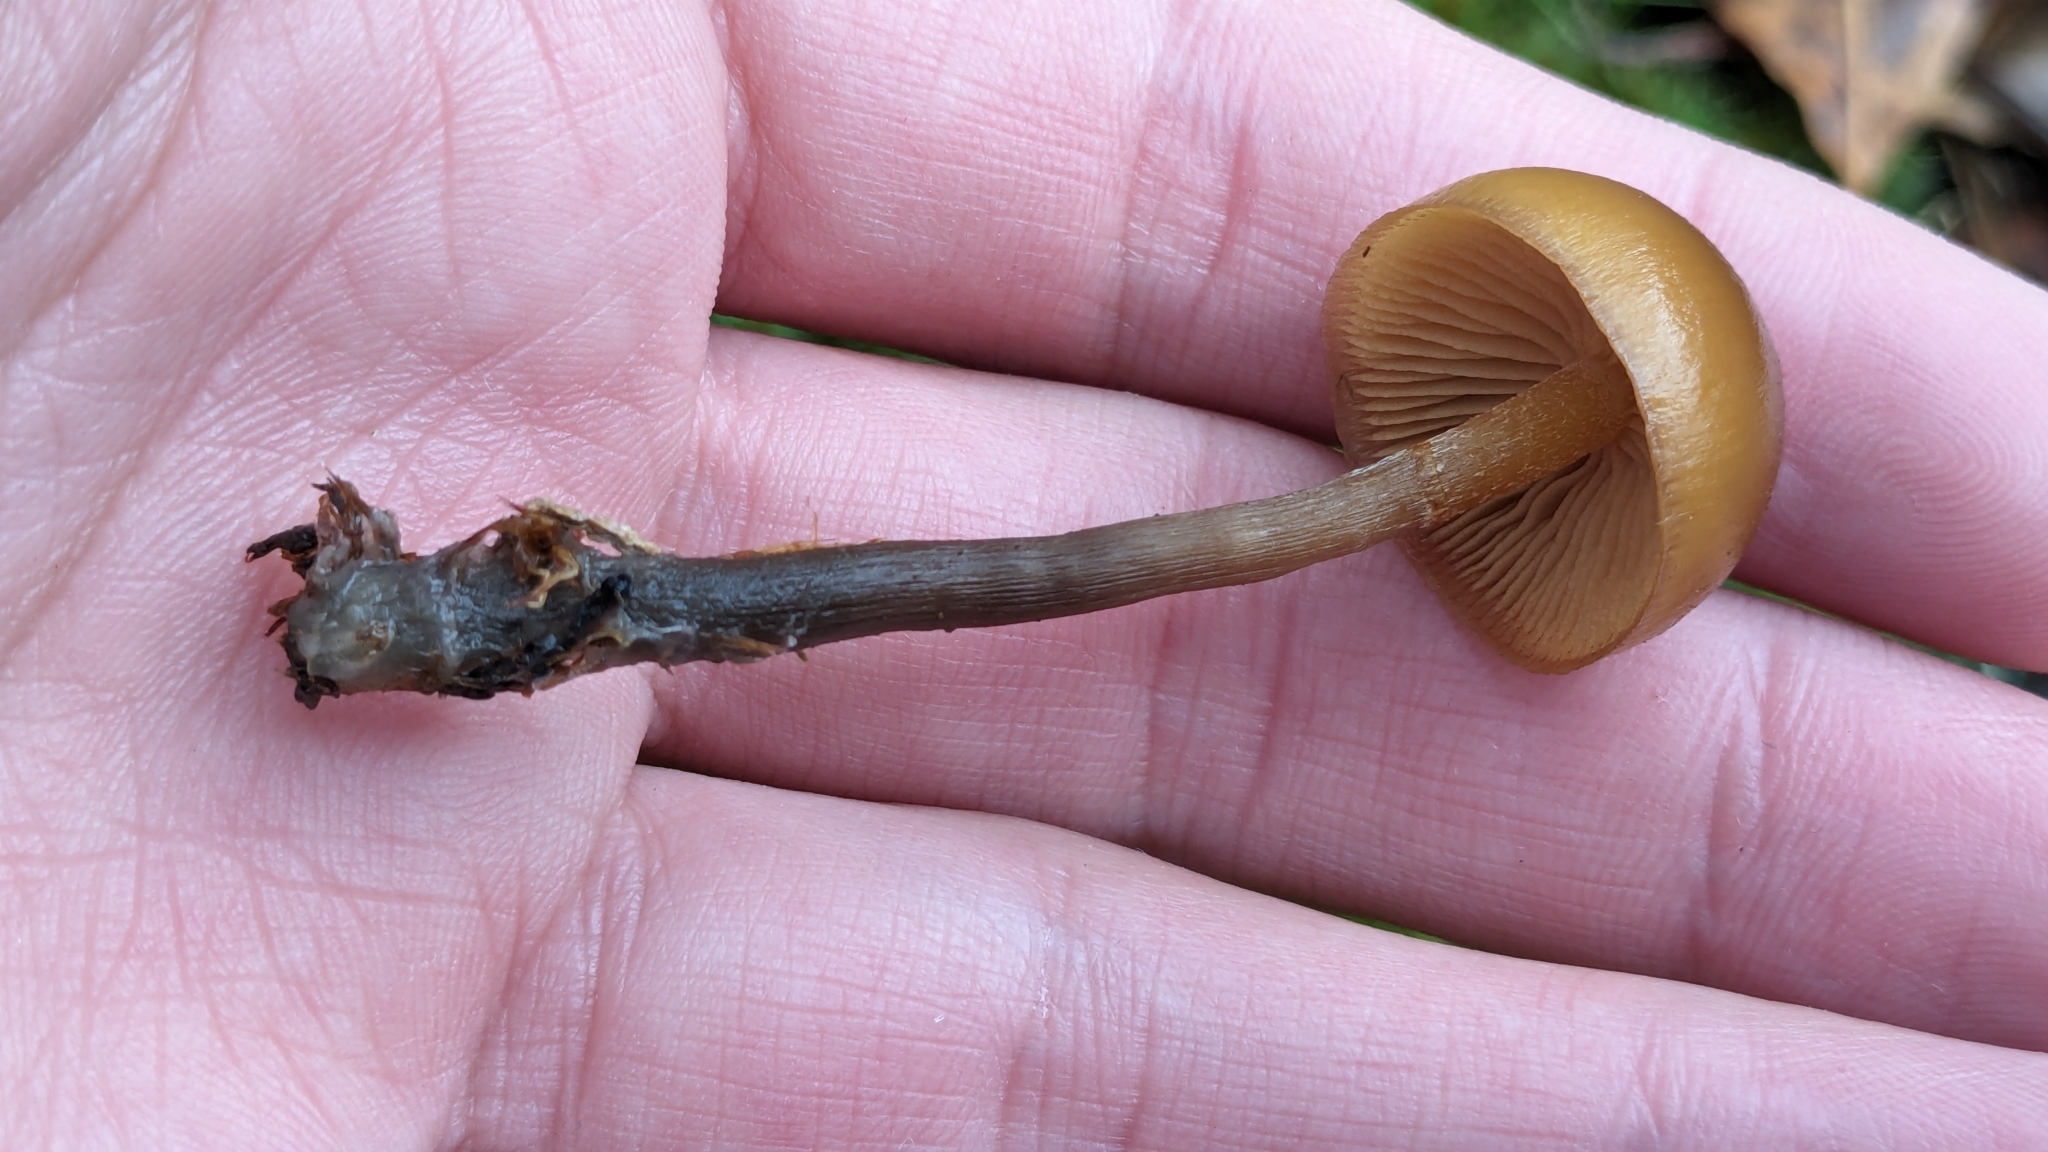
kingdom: Fungi
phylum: Basidiomycota
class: Agaricomycetes
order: Agaricales
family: Hymenogastraceae
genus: Galerina
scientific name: Galerina marginata
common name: Funeral bell
